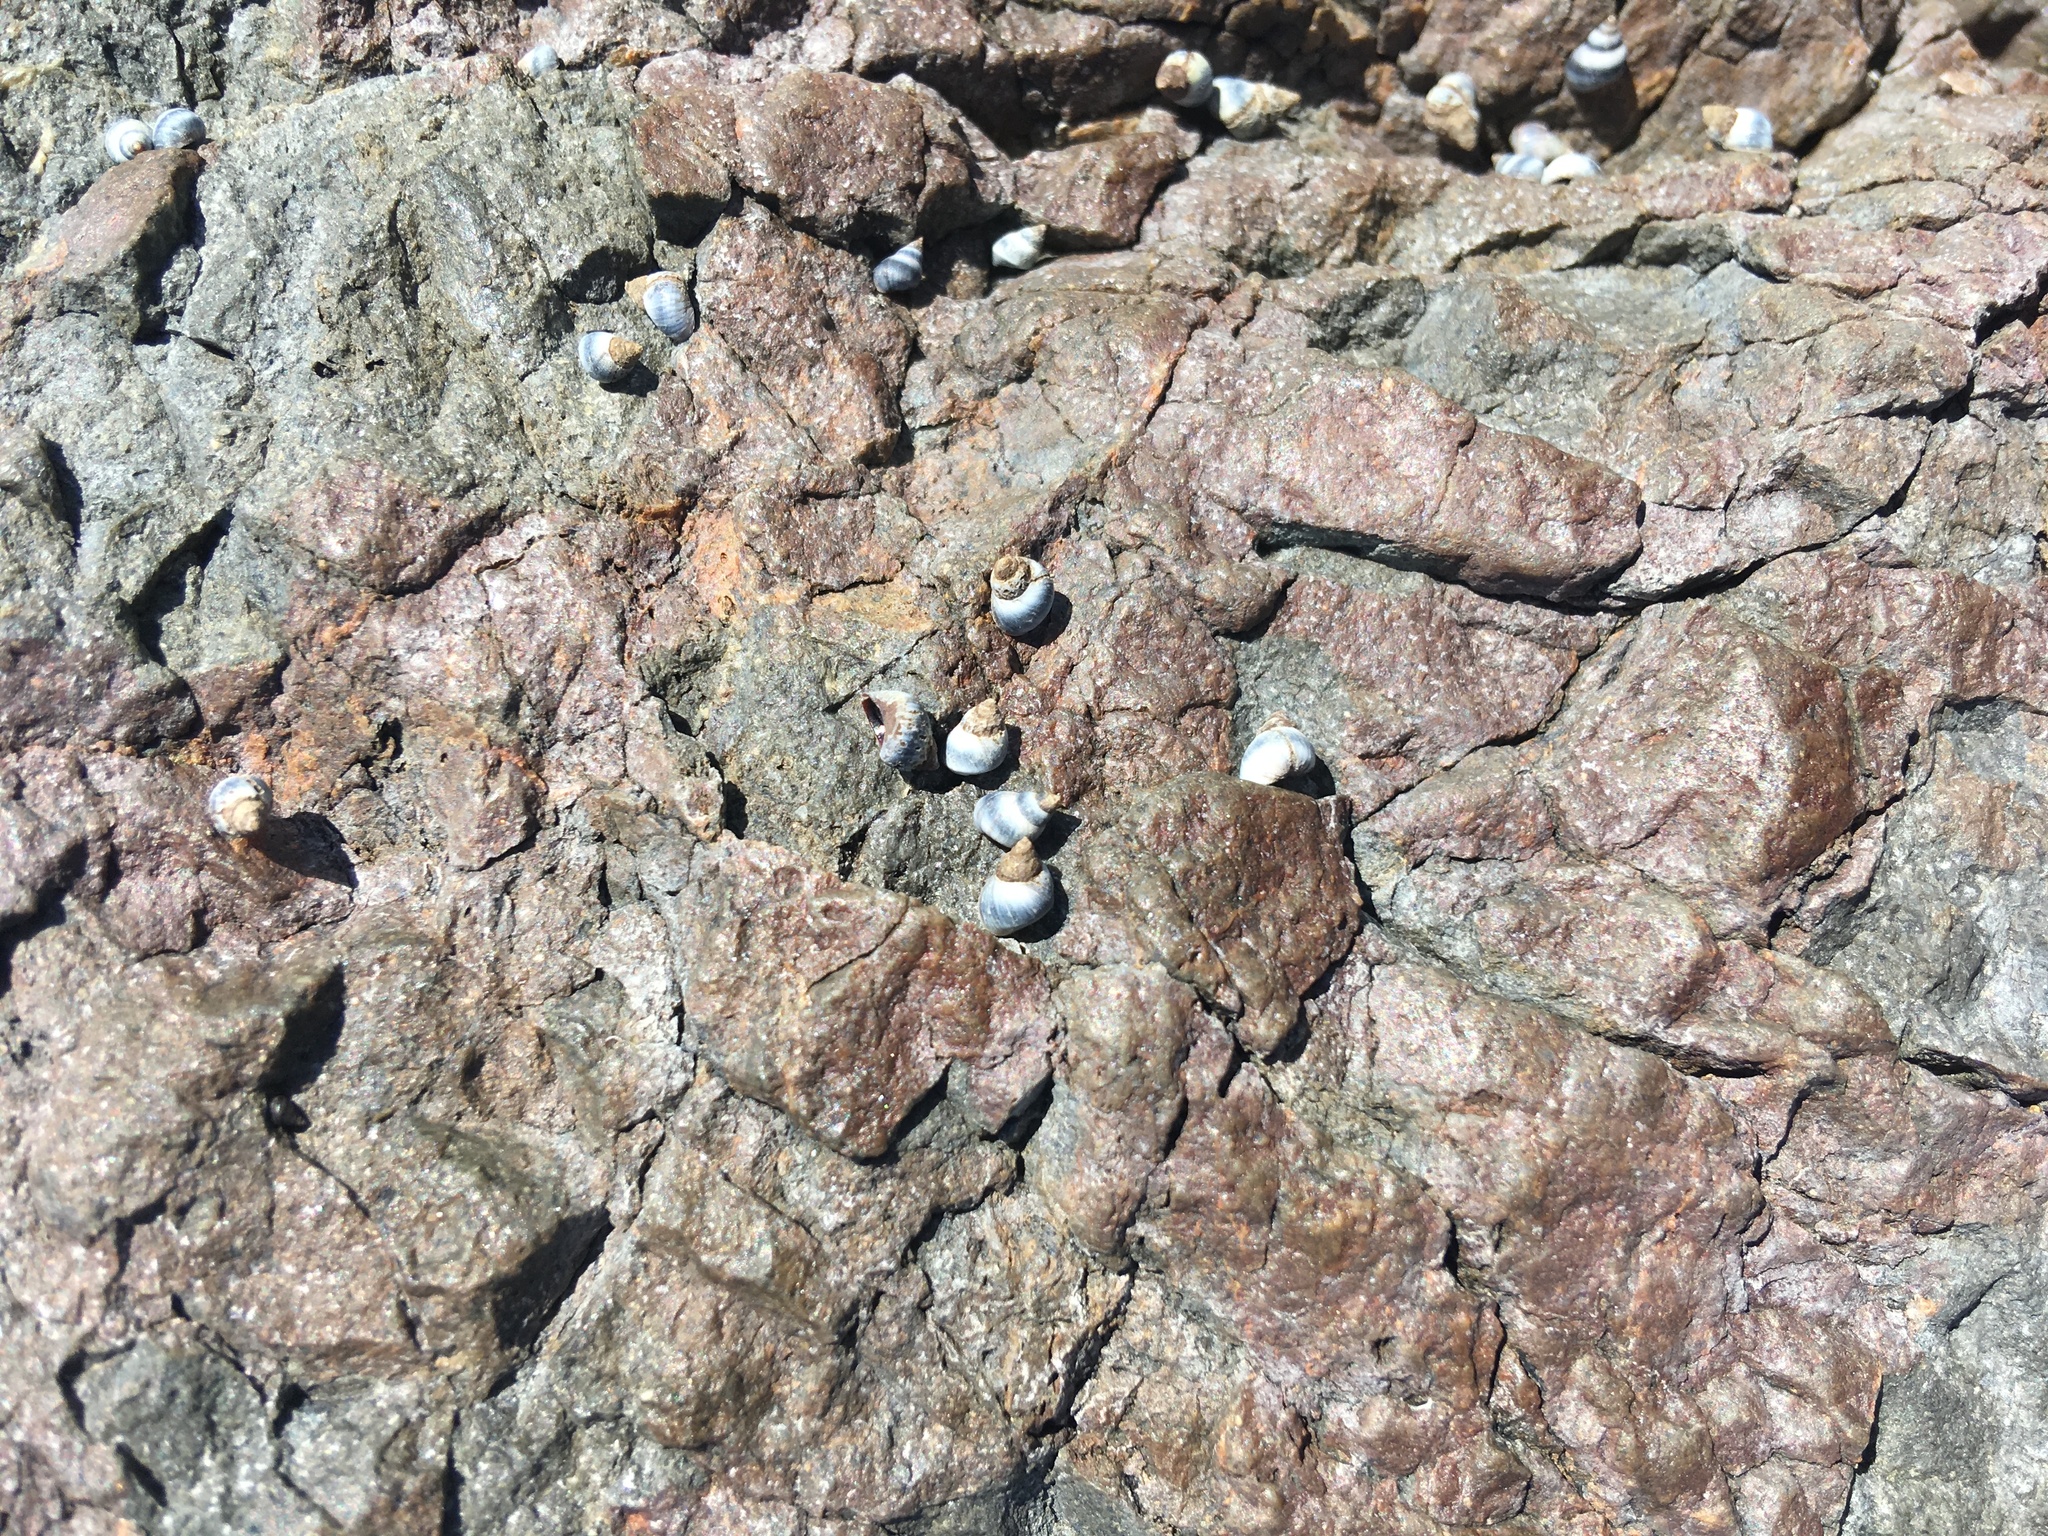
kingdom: Animalia
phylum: Mollusca
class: Gastropoda
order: Littorinimorpha
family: Littorinidae
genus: Austrolittorina
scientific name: Austrolittorina antipodum
